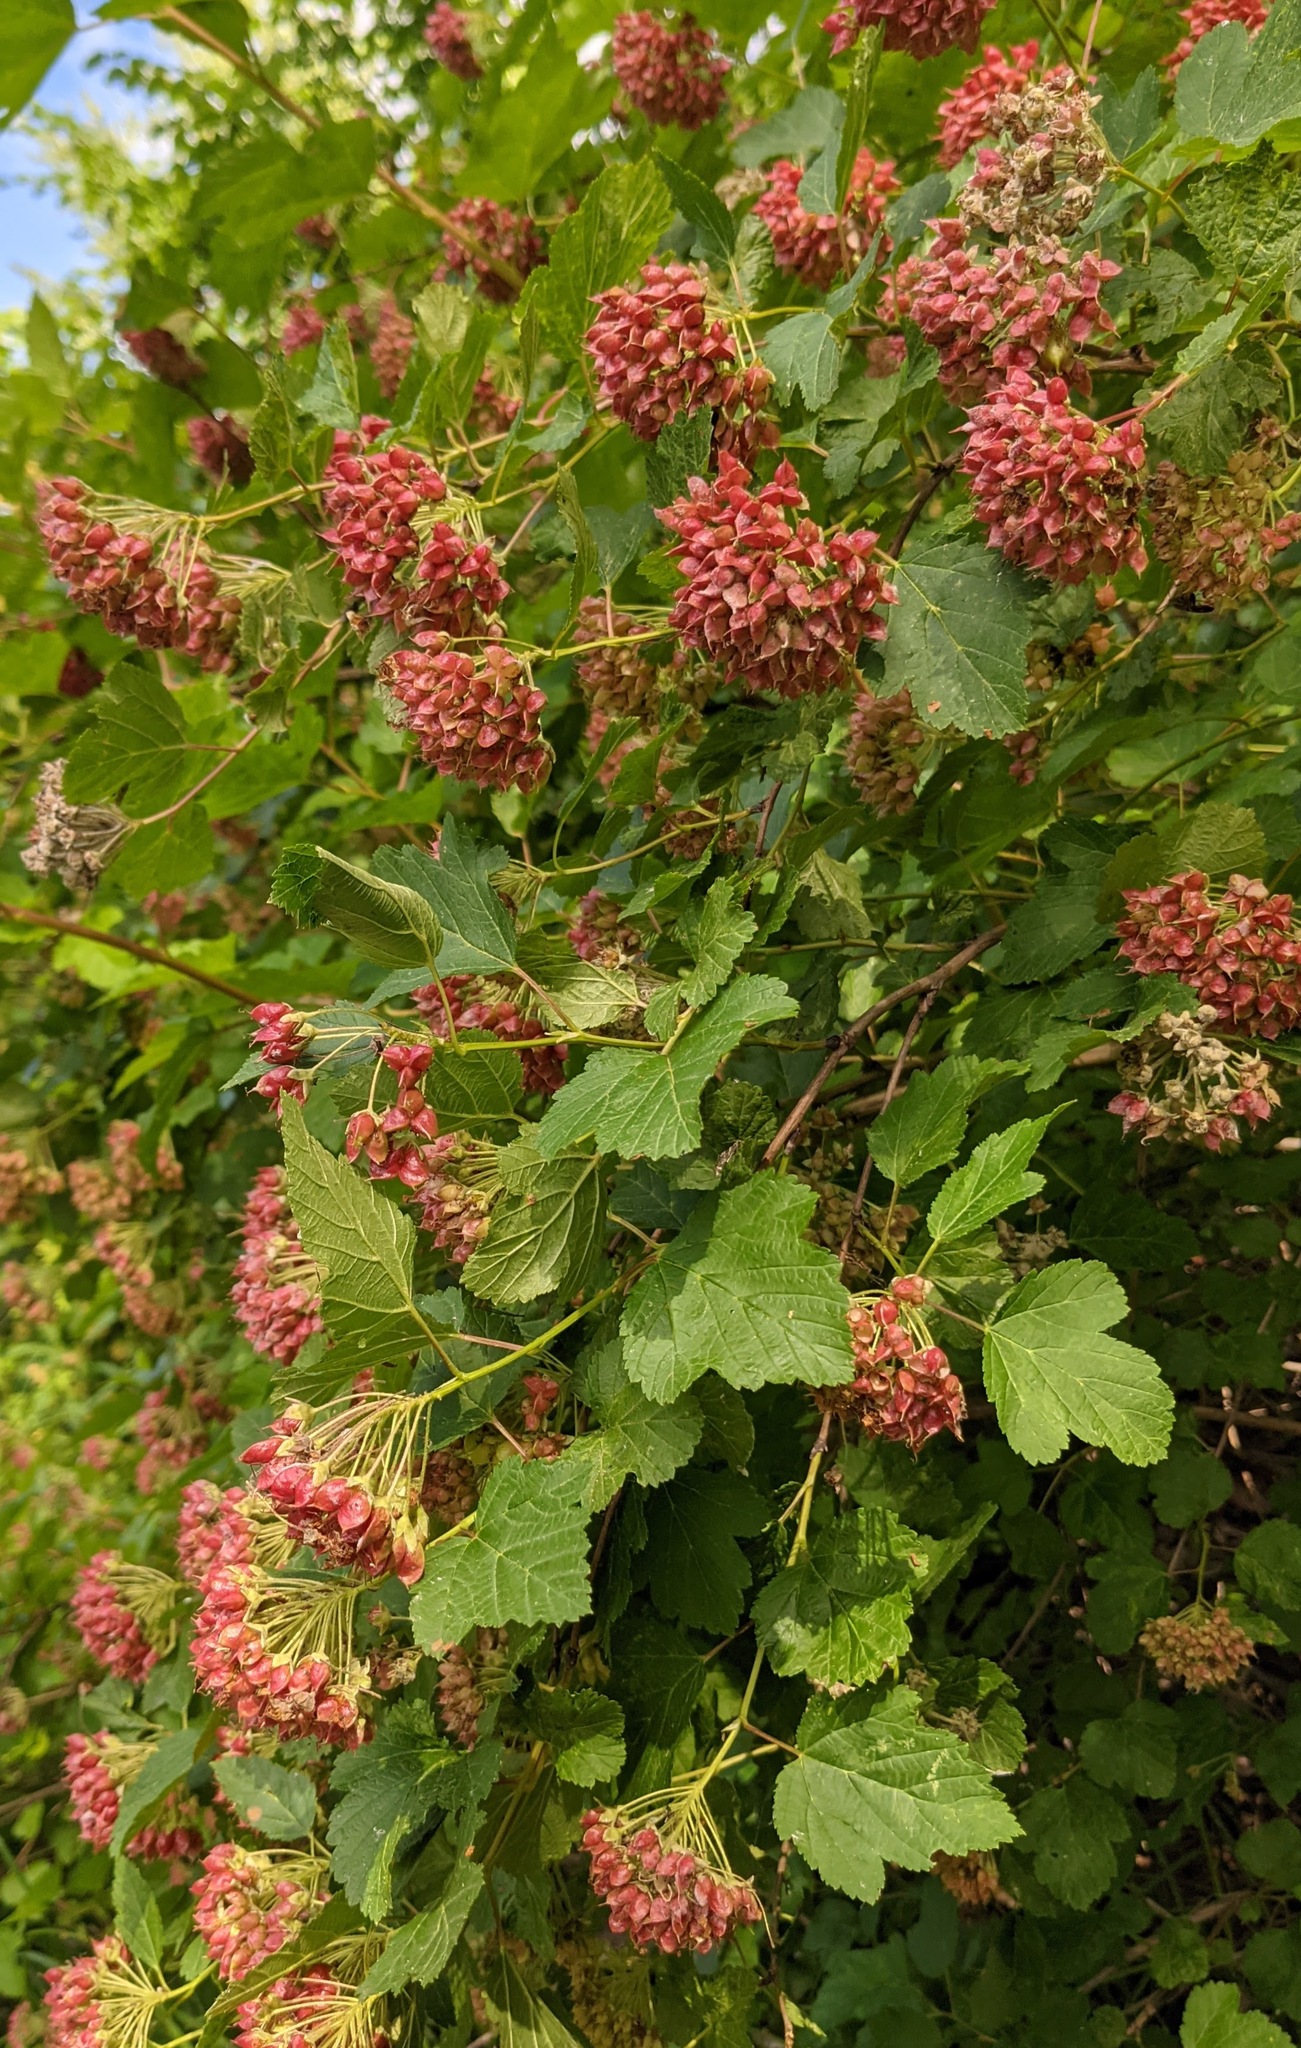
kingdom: Plantae
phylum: Tracheophyta
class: Magnoliopsida
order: Rosales
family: Rosaceae
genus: Physocarpus
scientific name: Physocarpus opulifolius
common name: Ninebark
